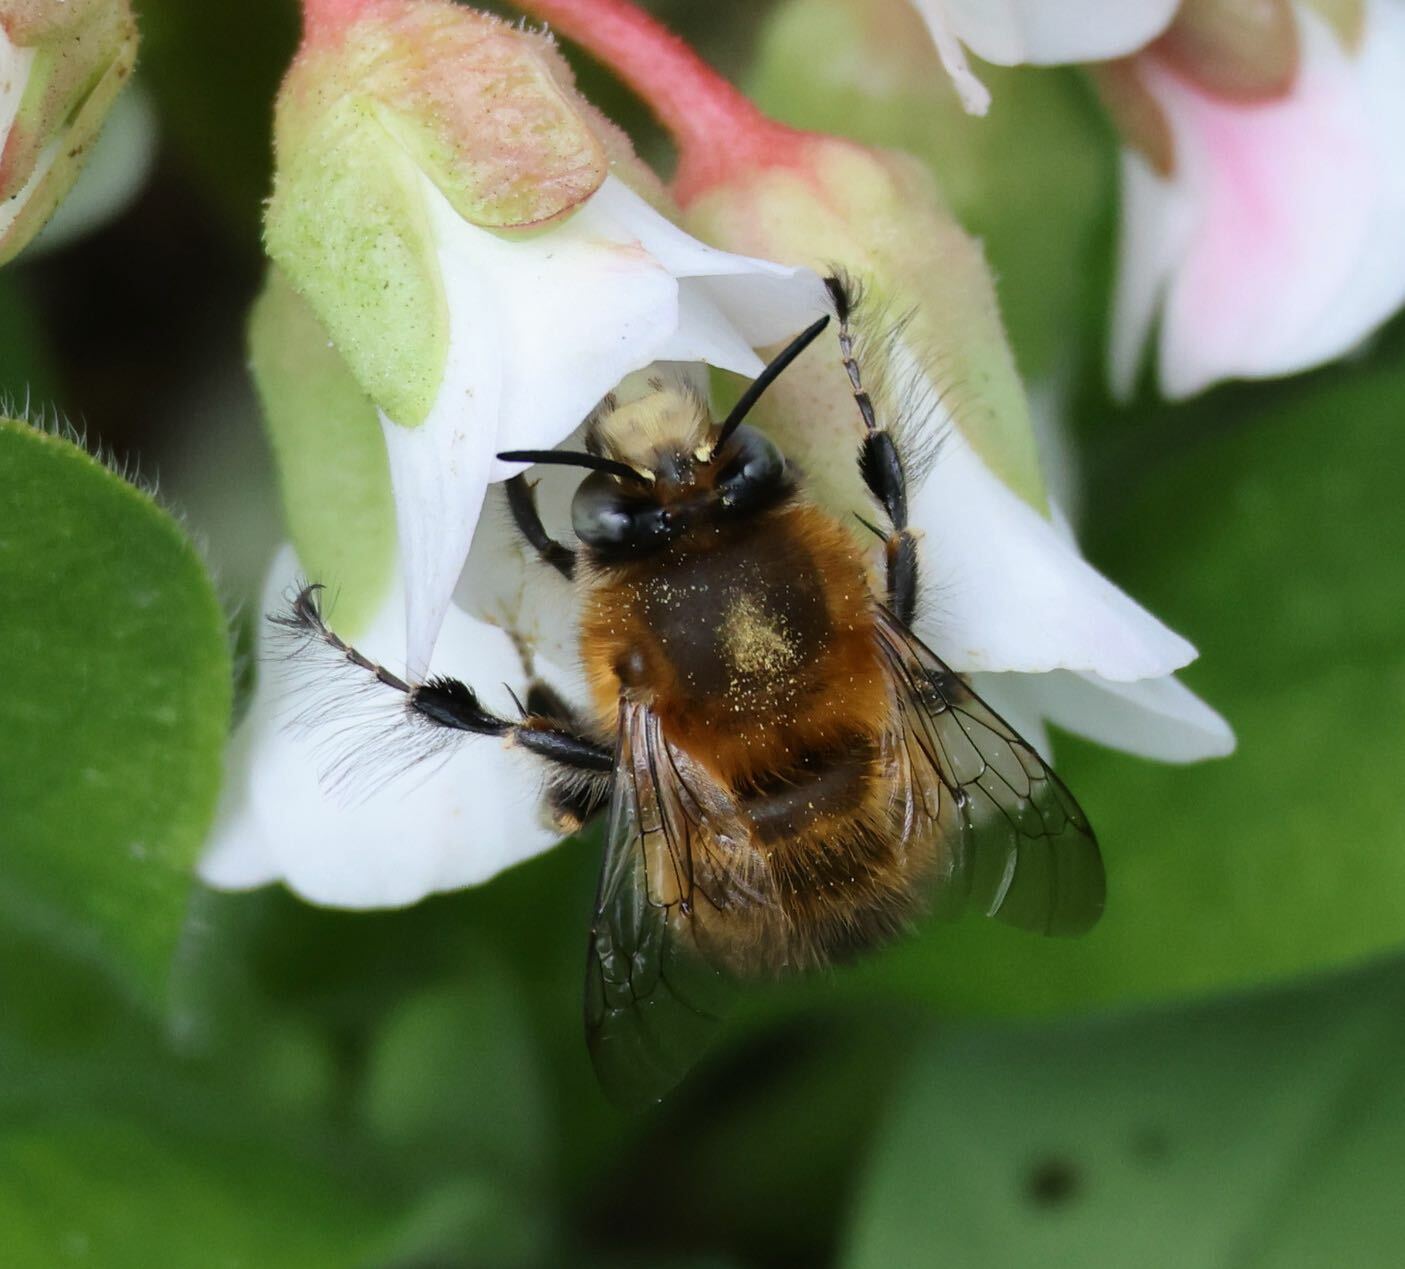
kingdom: Animalia
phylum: Arthropoda
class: Insecta
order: Hymenoptera
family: Apidae
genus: Anthophora
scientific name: Anthophora plumipes
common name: Hairy-footed flower bee
